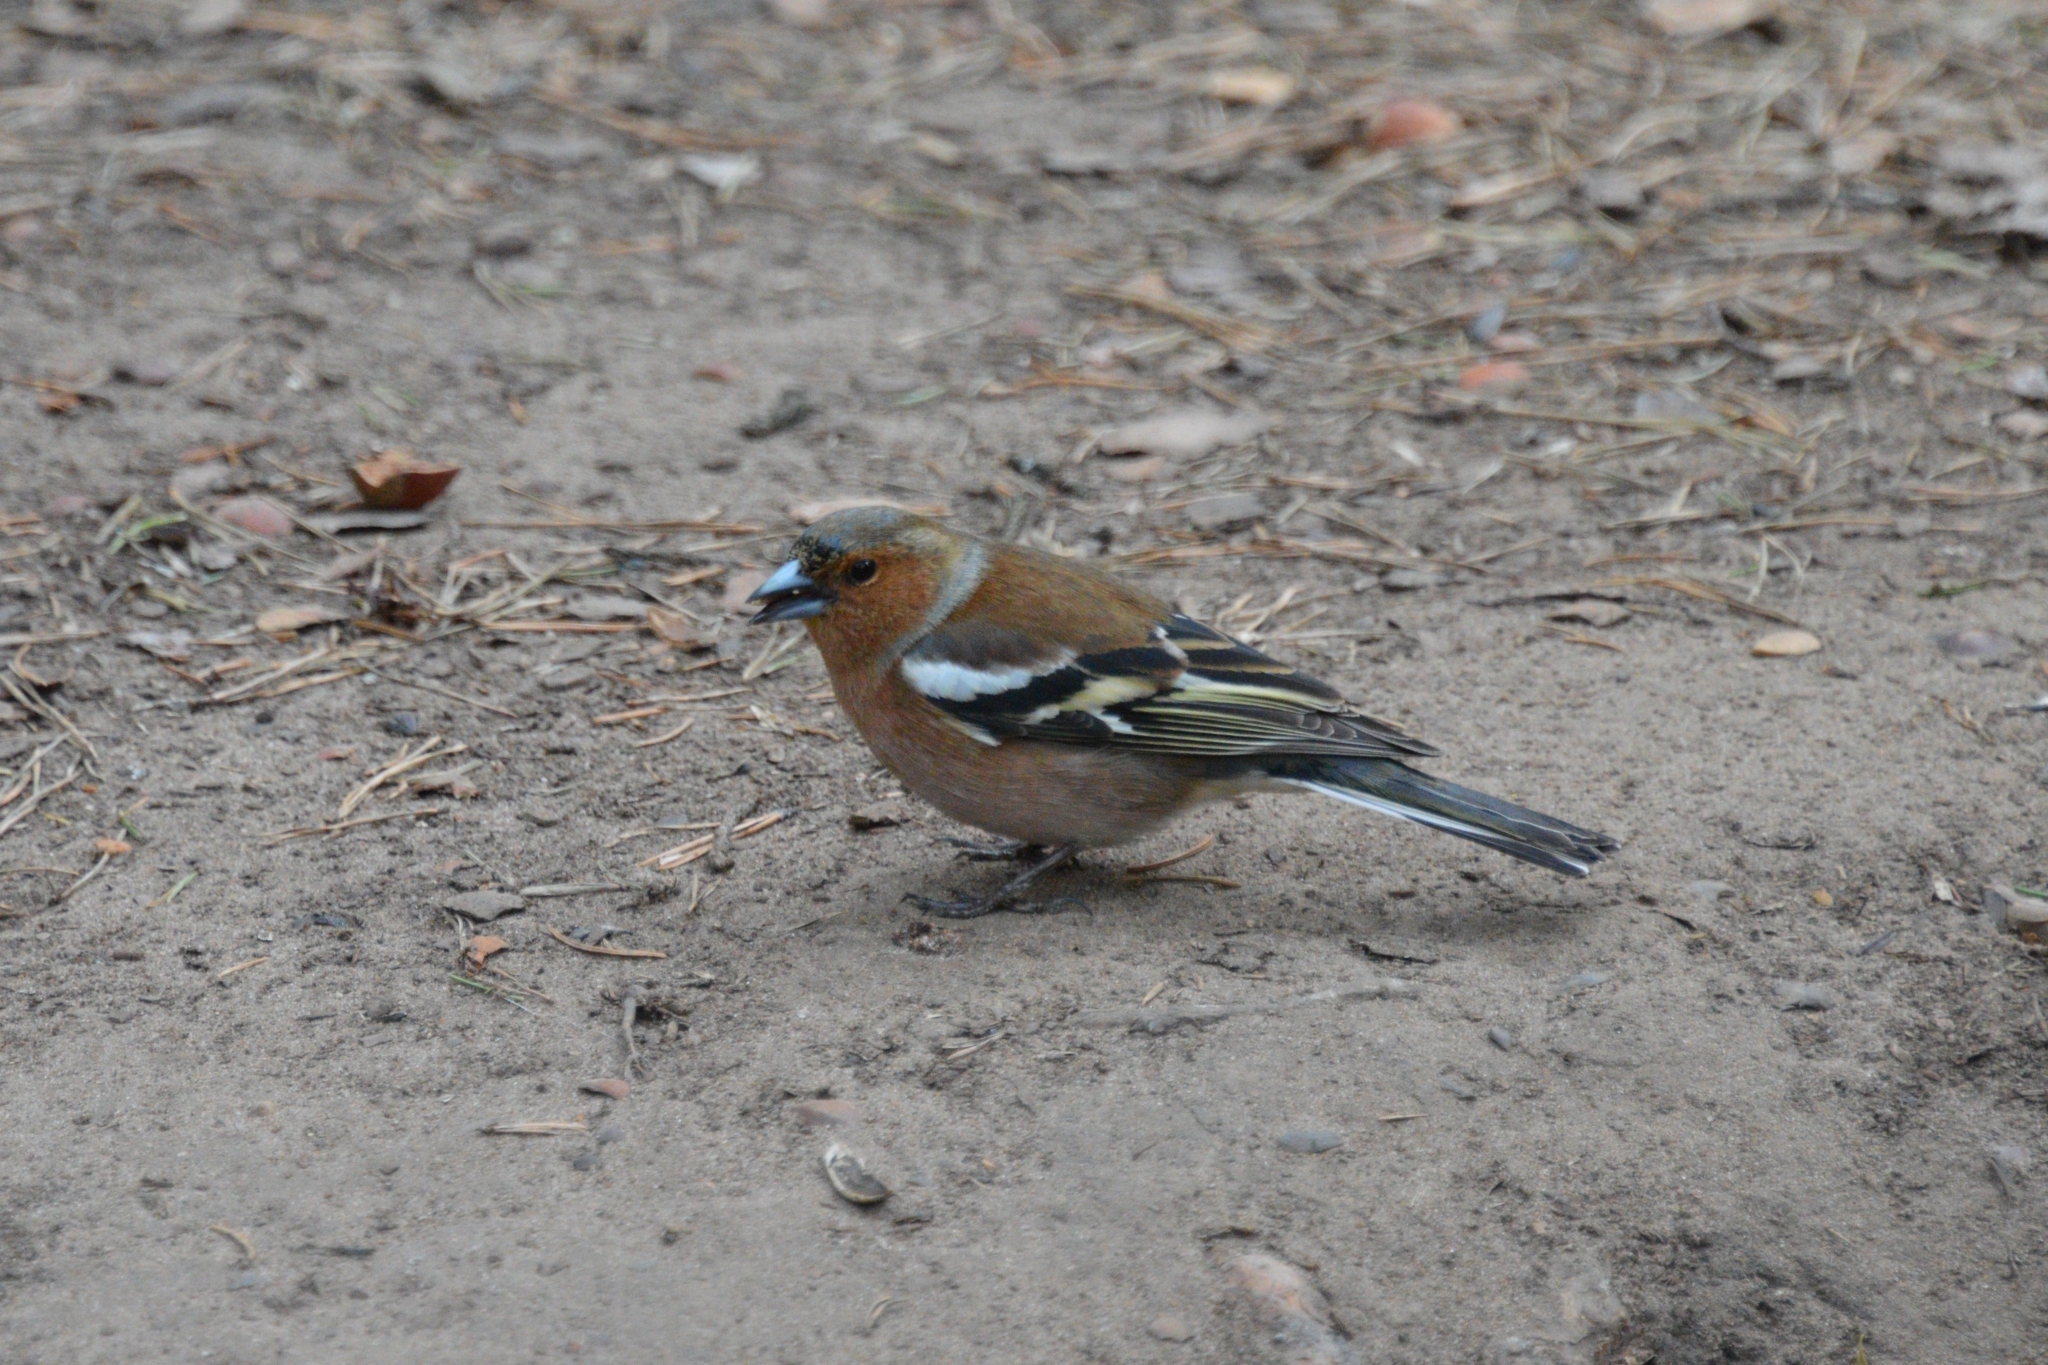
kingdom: Animalia
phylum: Chordata
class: Aves
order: Passeriformes
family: Fringillidae
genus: Fringilla
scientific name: Fringilla coelebs
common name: Common chaffinch
